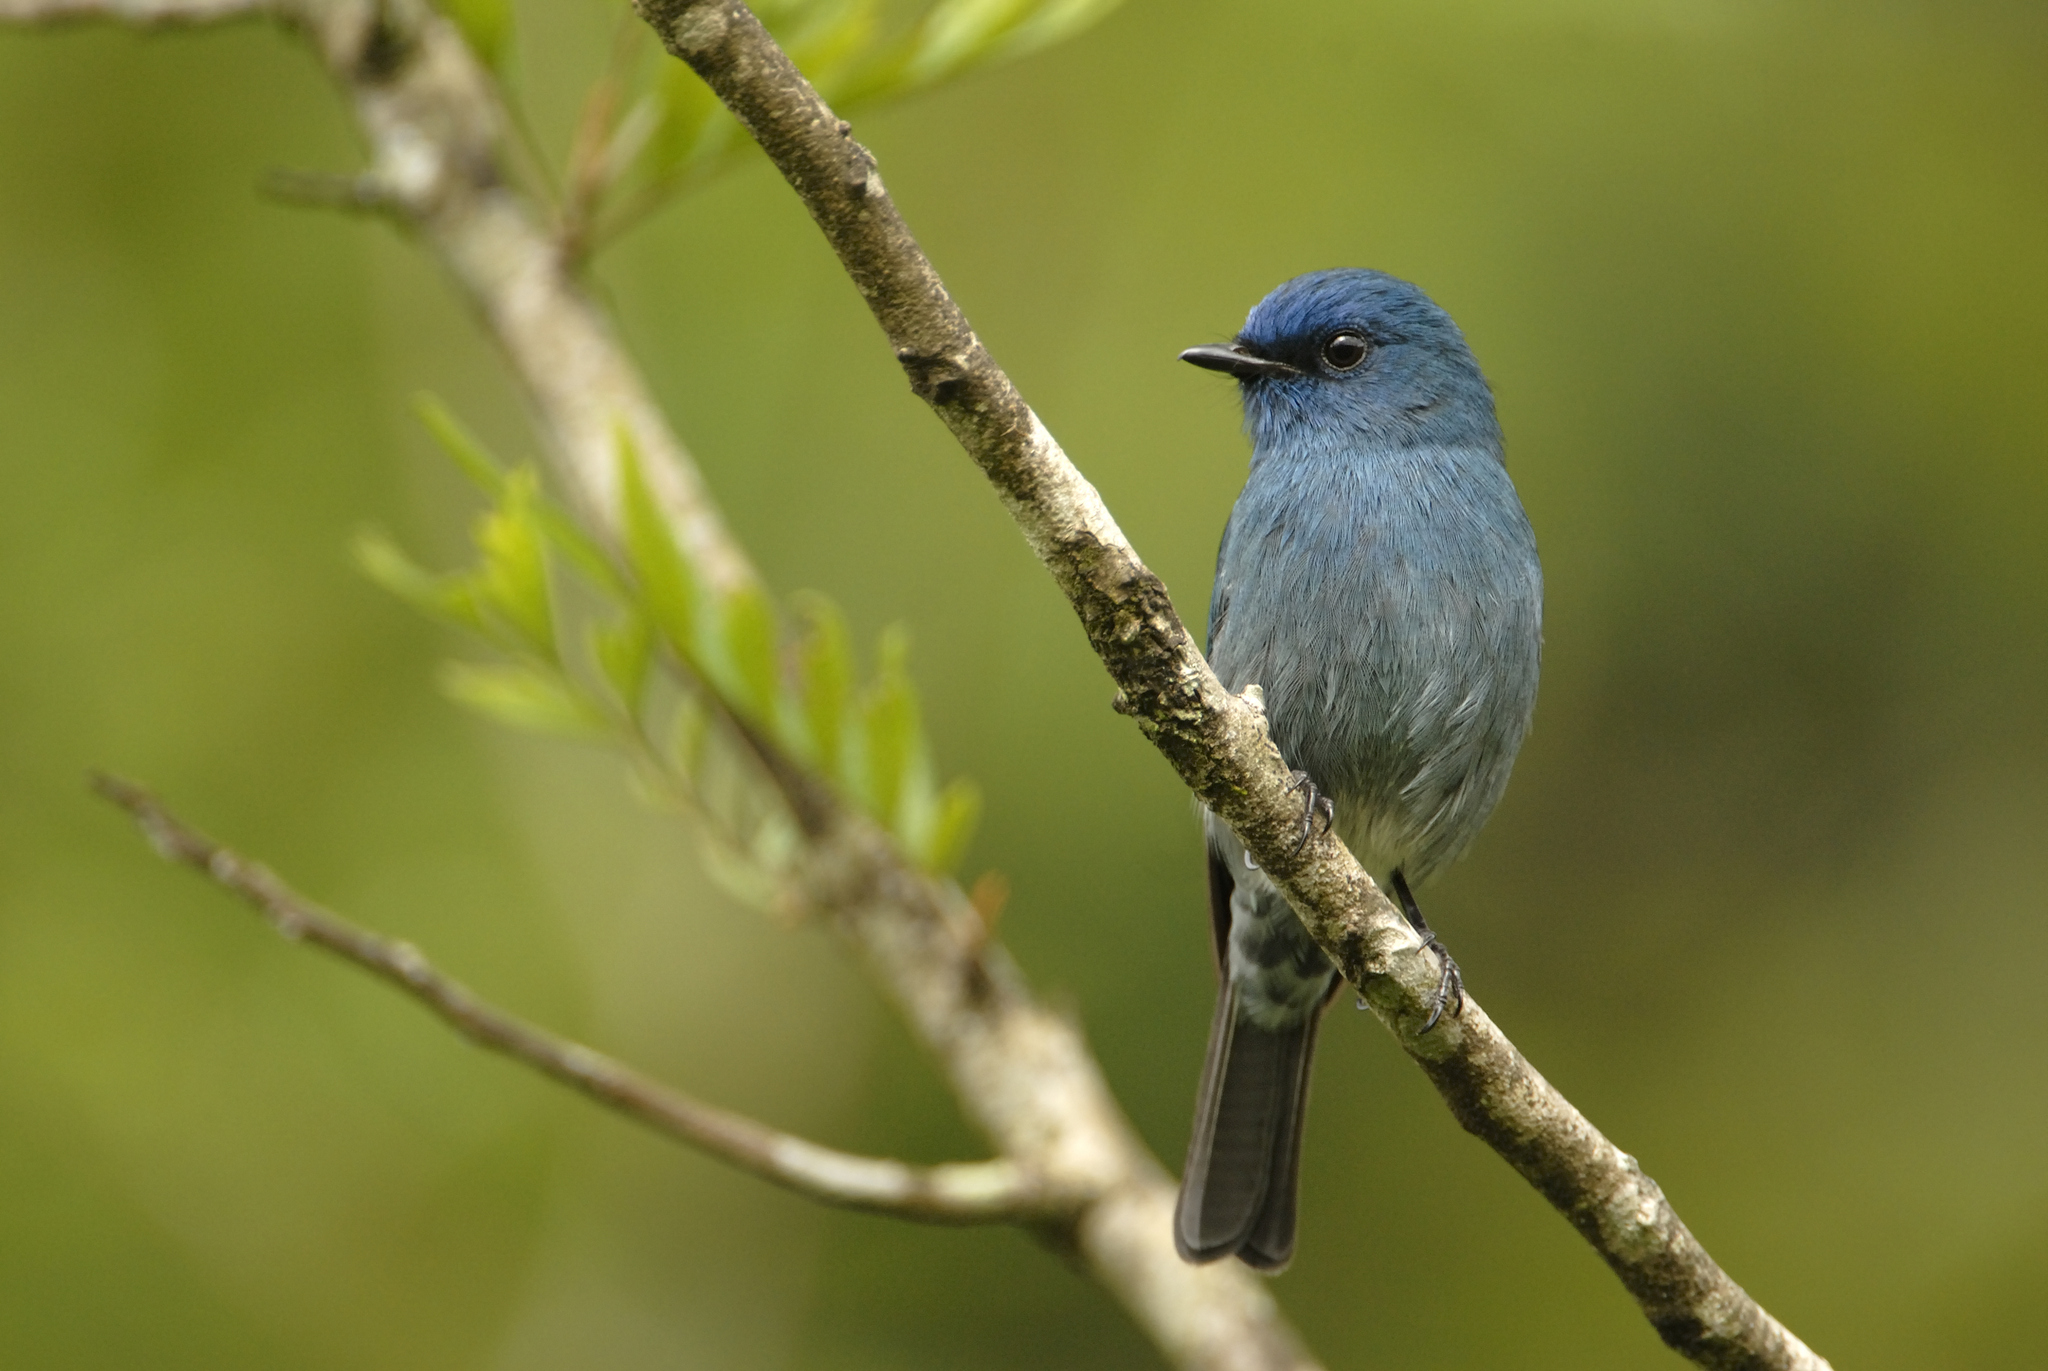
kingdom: Animalia
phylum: Chordata
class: Aves
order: Passeriformes
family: Muscicapidae
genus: Eumyias
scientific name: Eumyias albicaudatus
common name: Nilgiri flycatcher
